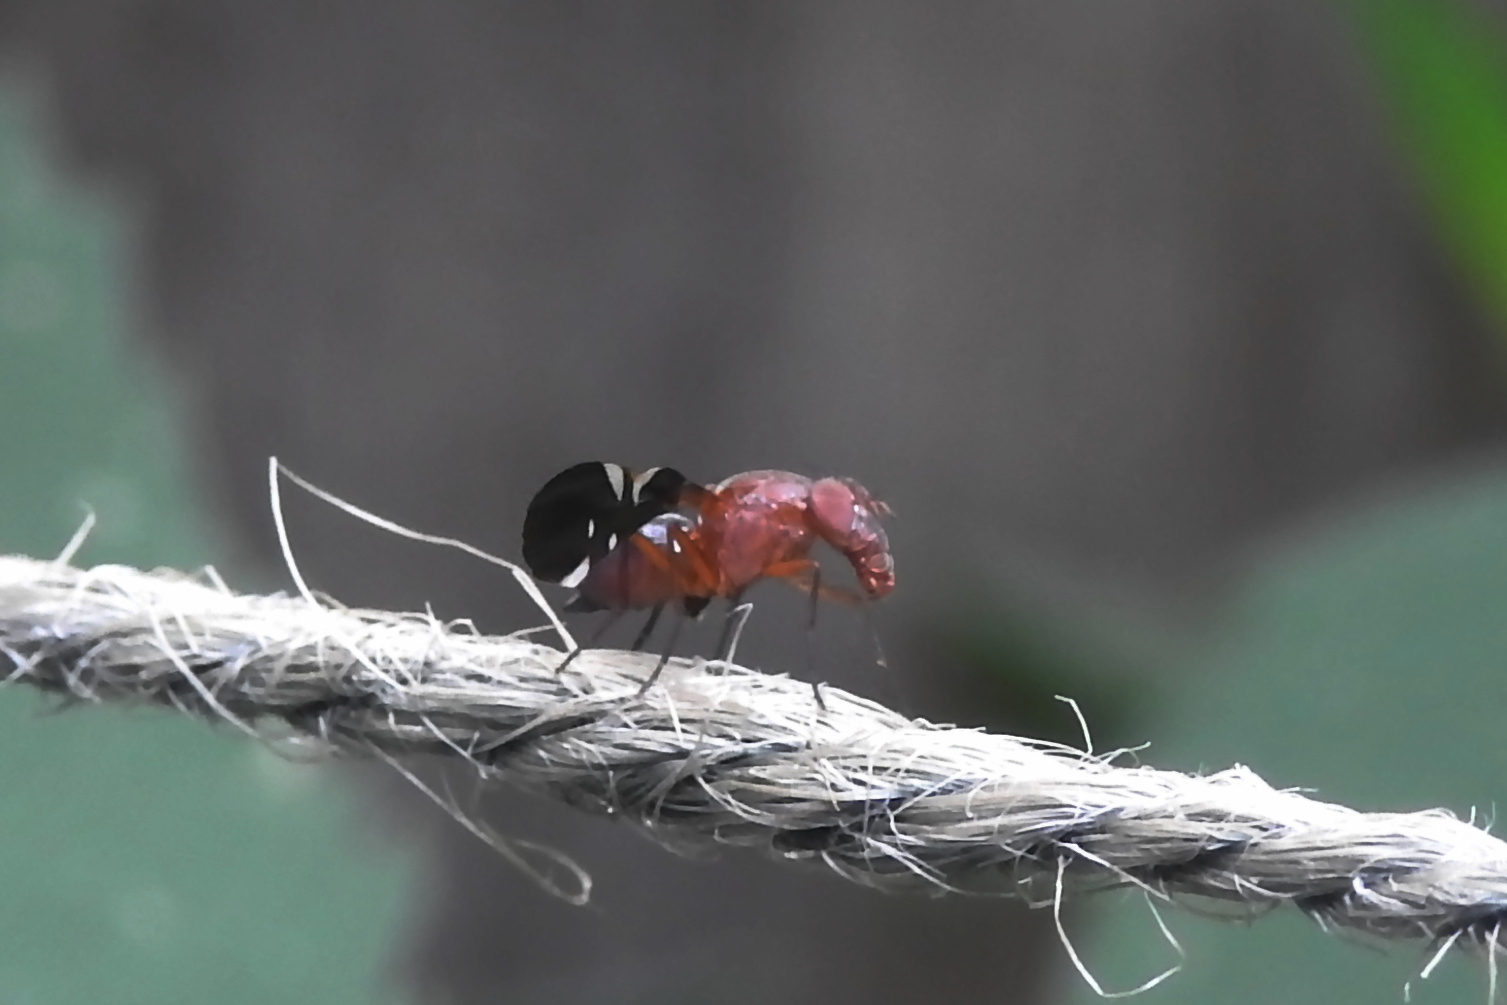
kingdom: Animalia
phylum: Arthropoda
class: Insecta
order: Diptera
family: Ulidiidae
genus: Delphinia
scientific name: Delphinia picta
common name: Common picture-winged fly
